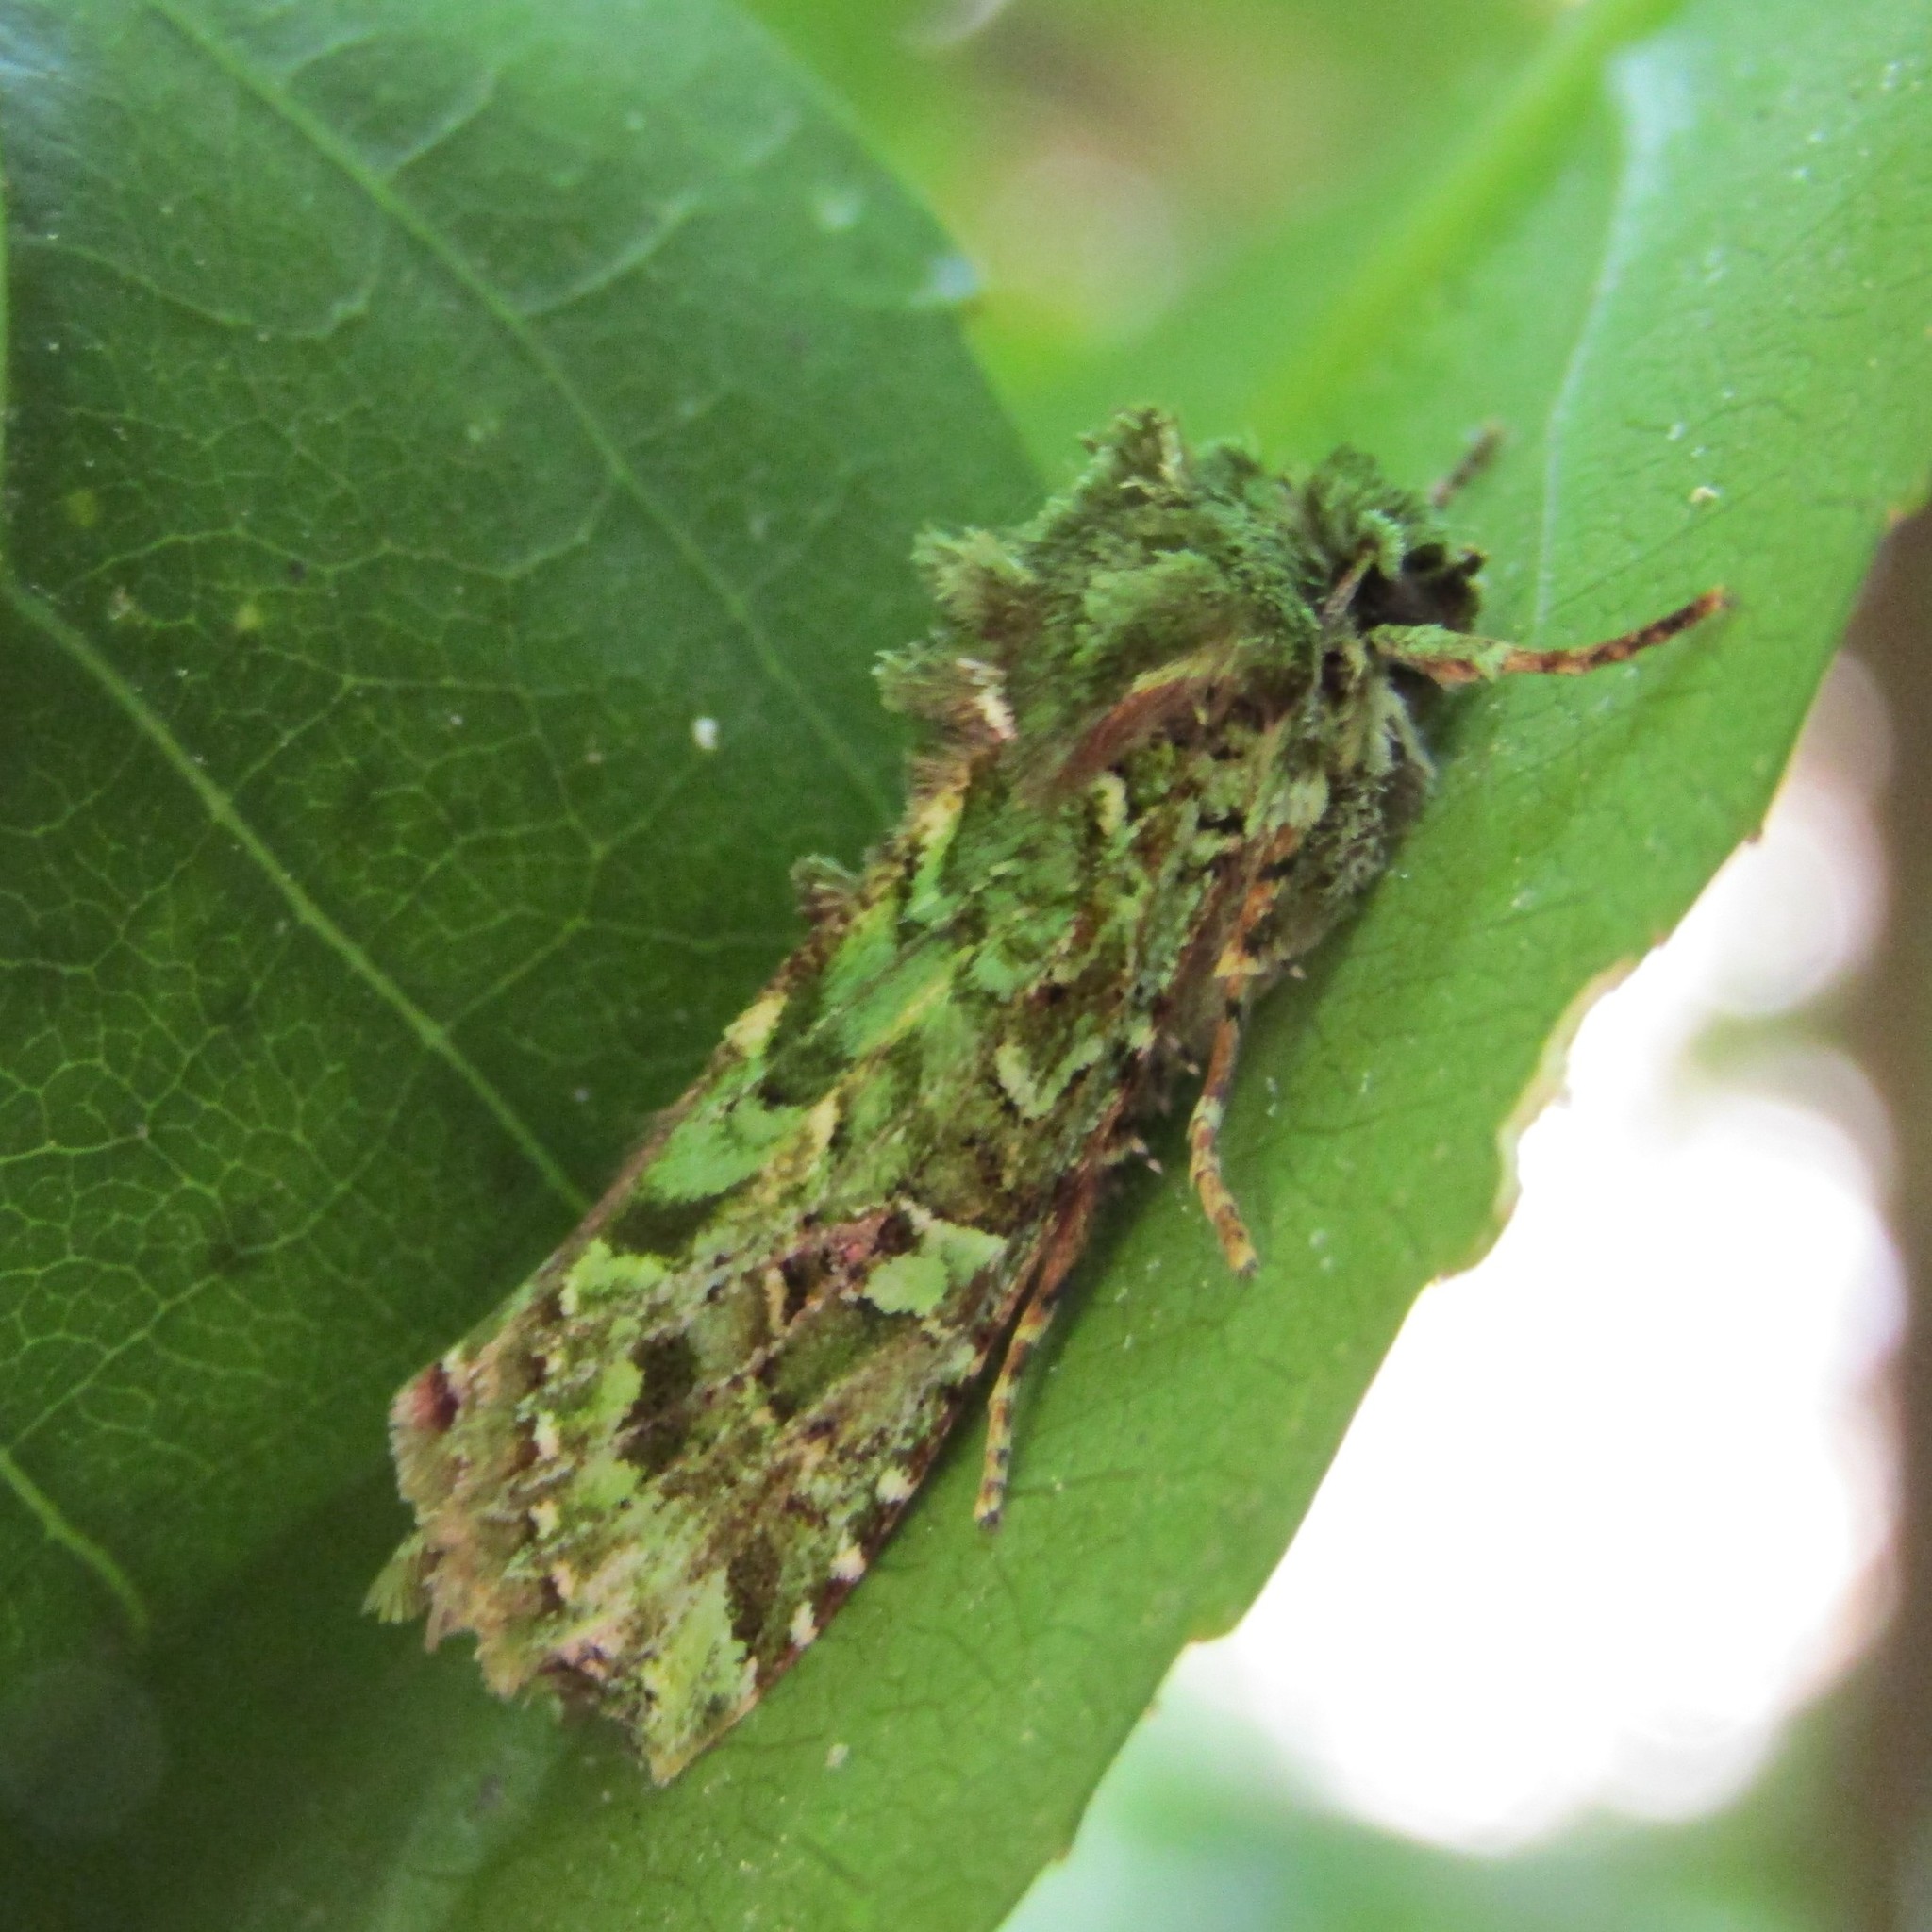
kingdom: Animalia
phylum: Arthropoda
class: Insecta
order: Lepidoptera
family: Noctuidae
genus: Feredayia
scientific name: Feredayia grammosa
